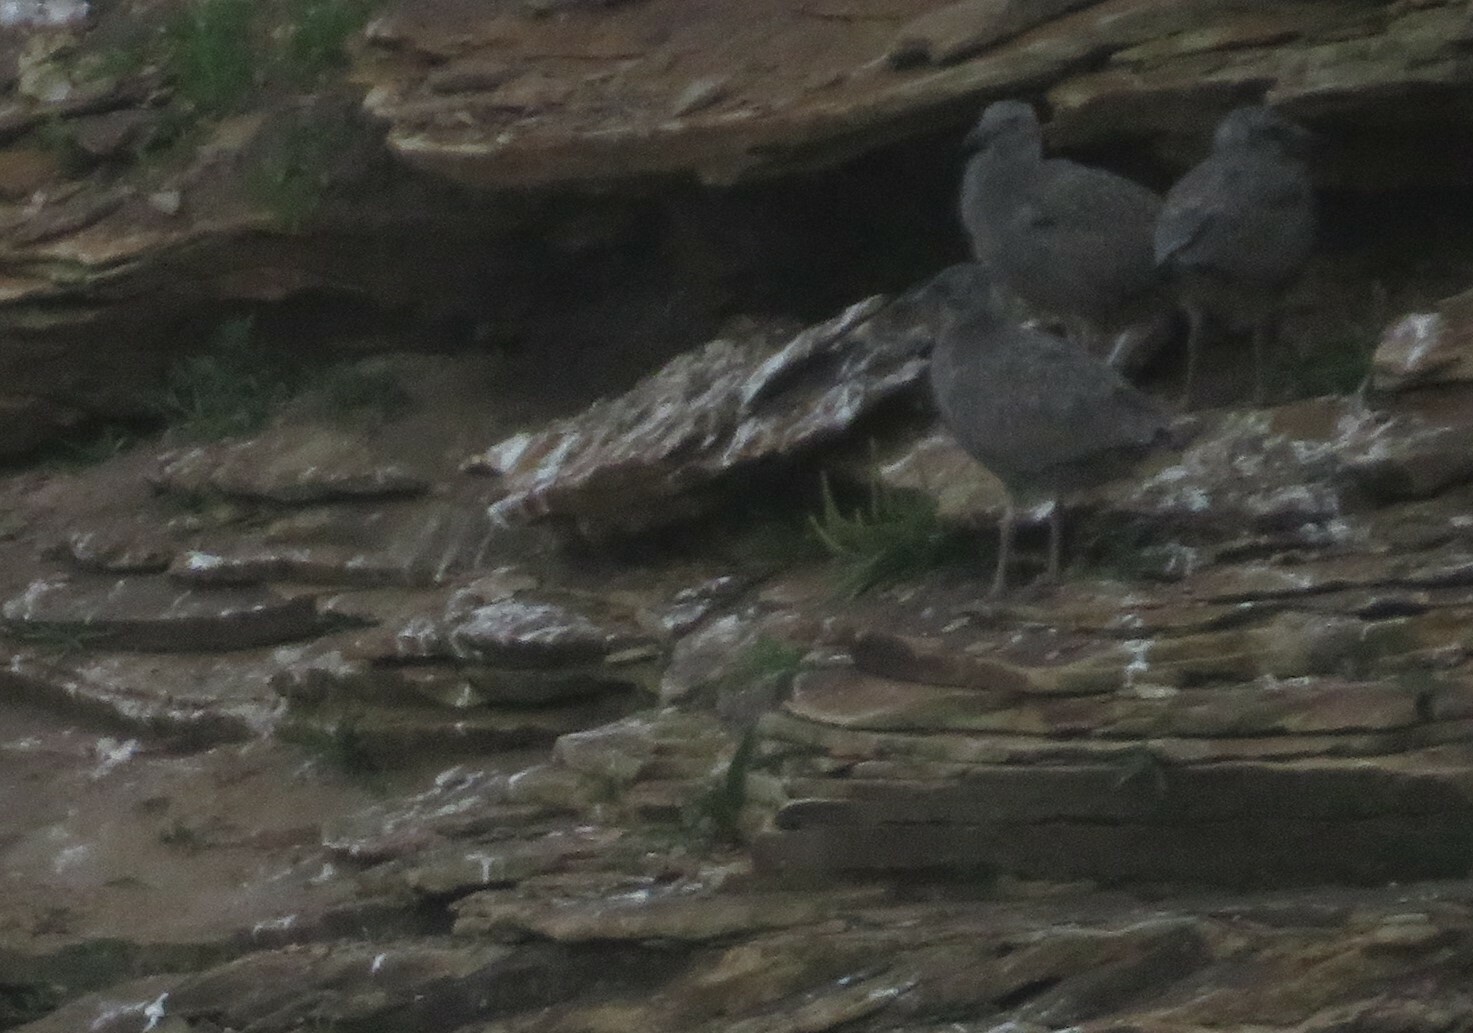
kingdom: Animalia
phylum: Chordata
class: Aves
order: Charadriiformes
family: Laridae
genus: Larus
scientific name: Larus argentatus
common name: Herring gull
